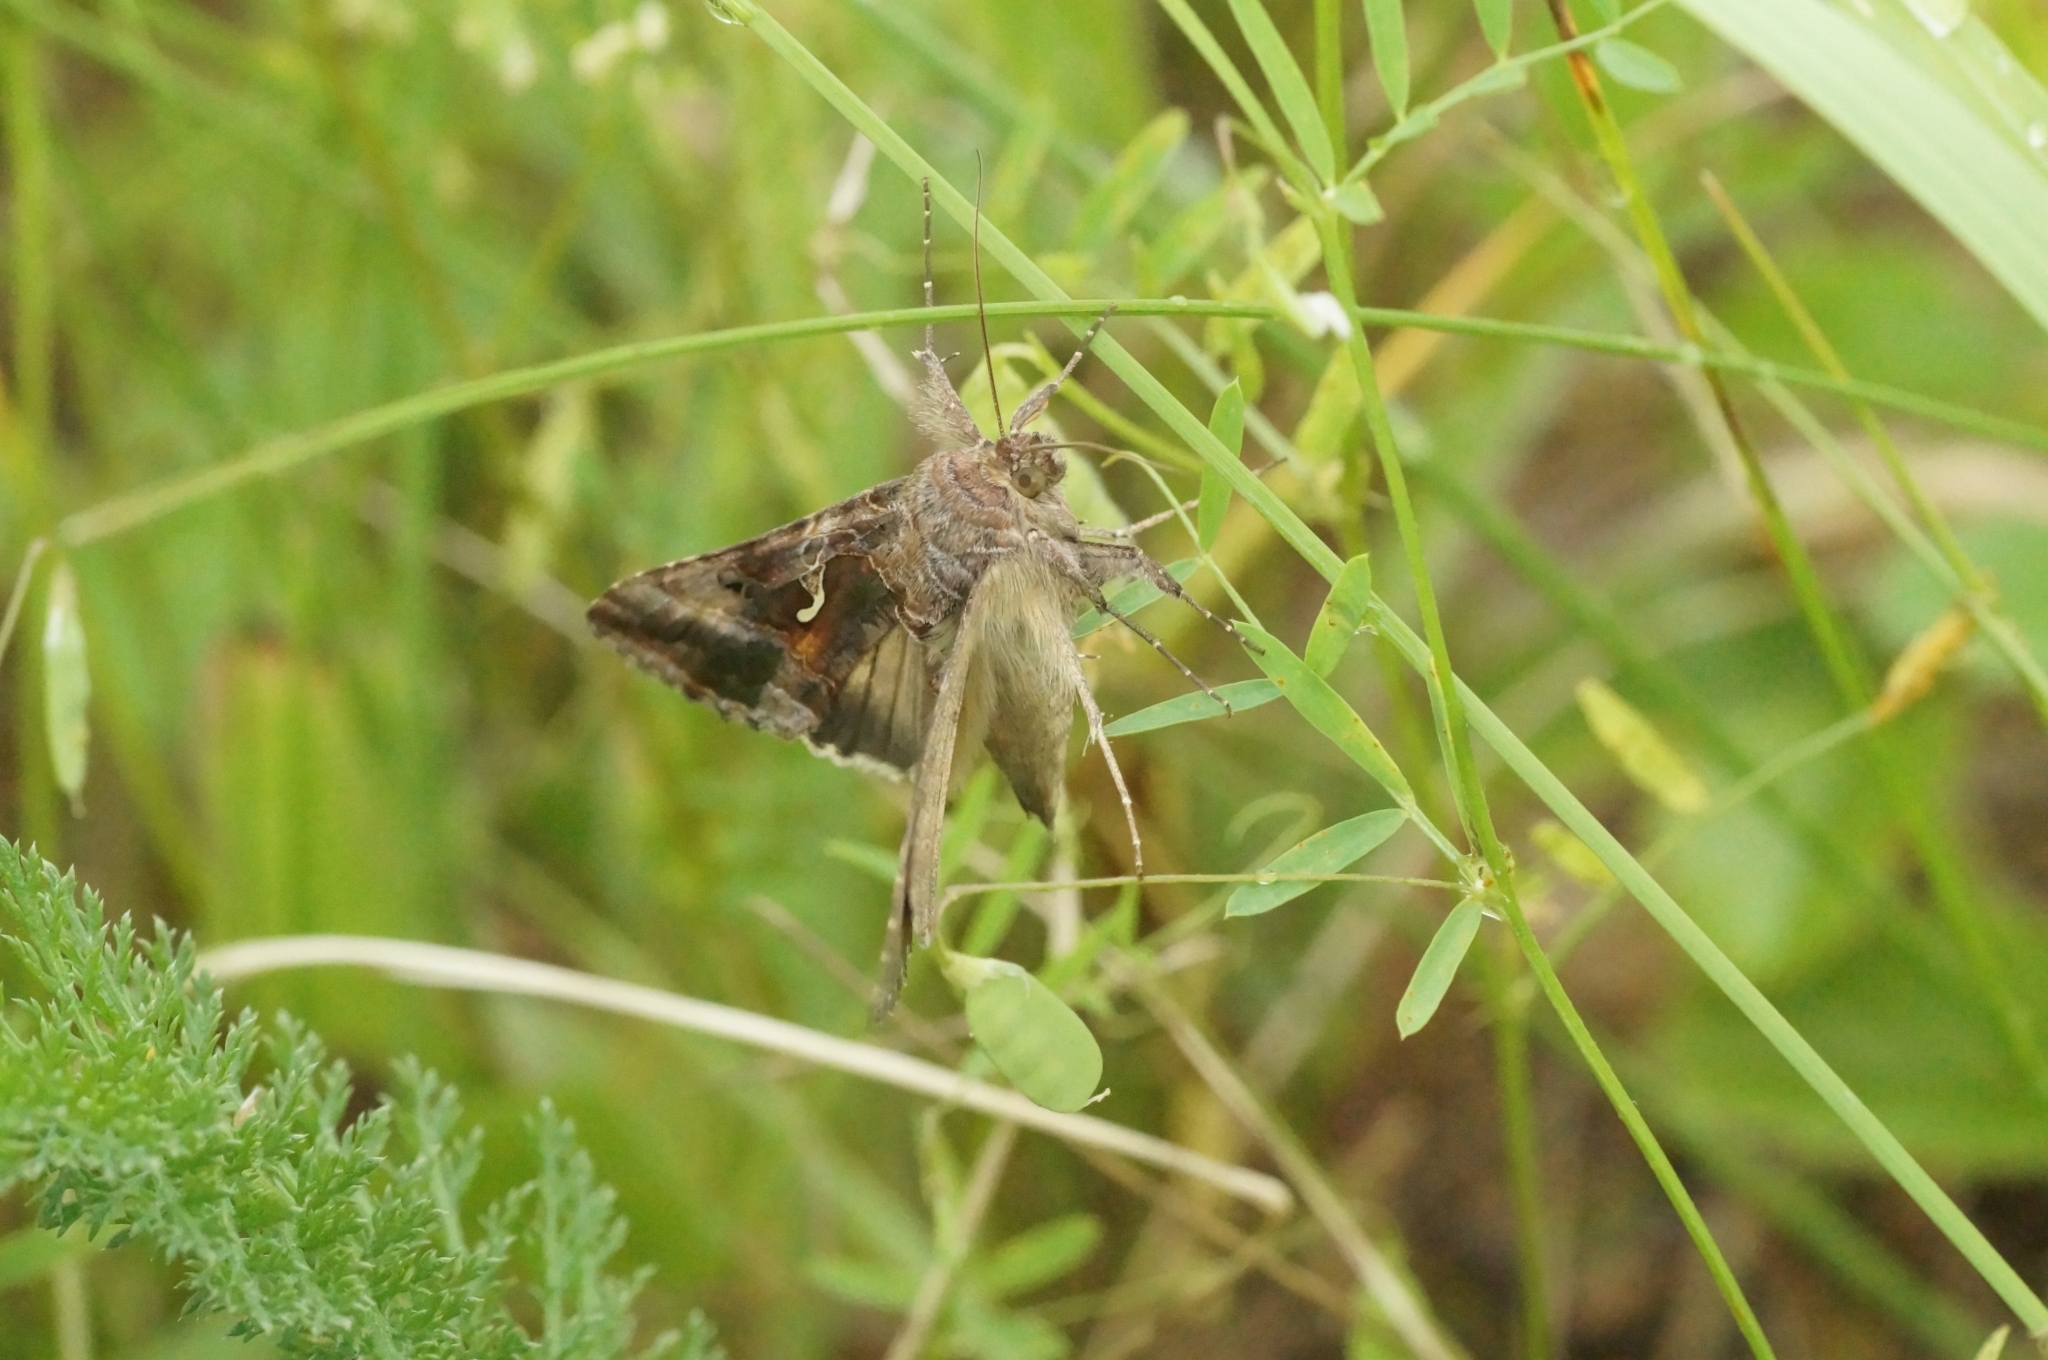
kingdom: Animalia
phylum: Arthropoda
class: Insecta
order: Lepidoptera
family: Noctuidae
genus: Autographa
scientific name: Autographa gamma
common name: Silver y
